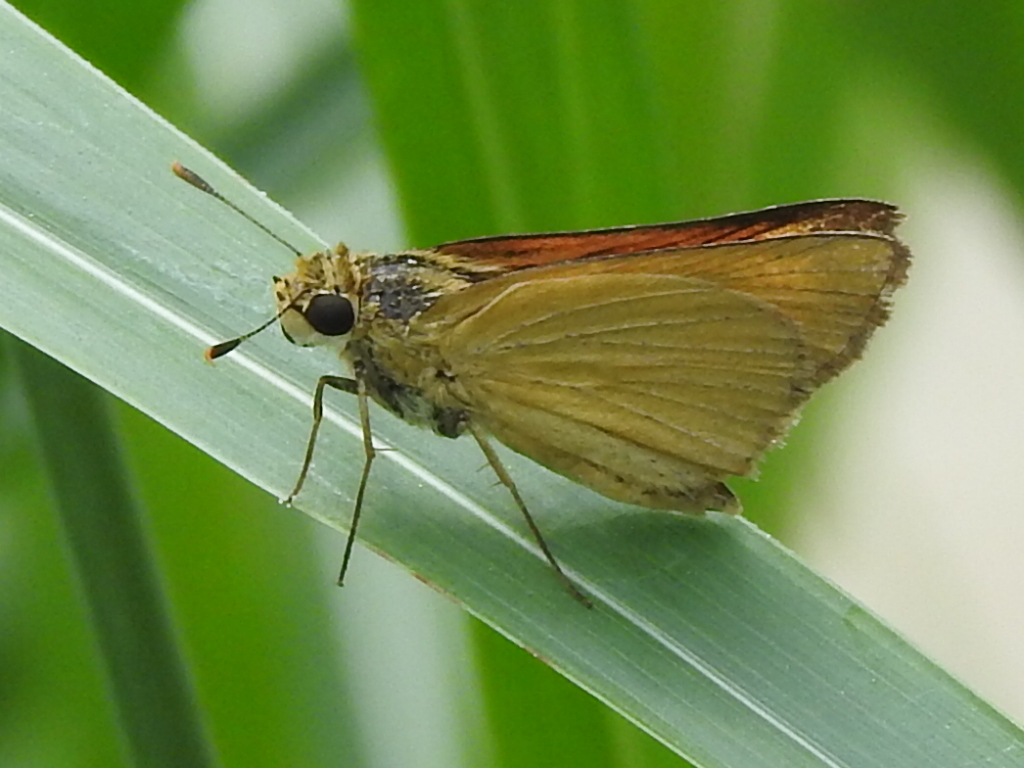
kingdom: Animalia
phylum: Arthropoda
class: Insecta
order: Lepidoptera
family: Hesperiidae
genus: Atrytone
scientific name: Atrytone delaware
